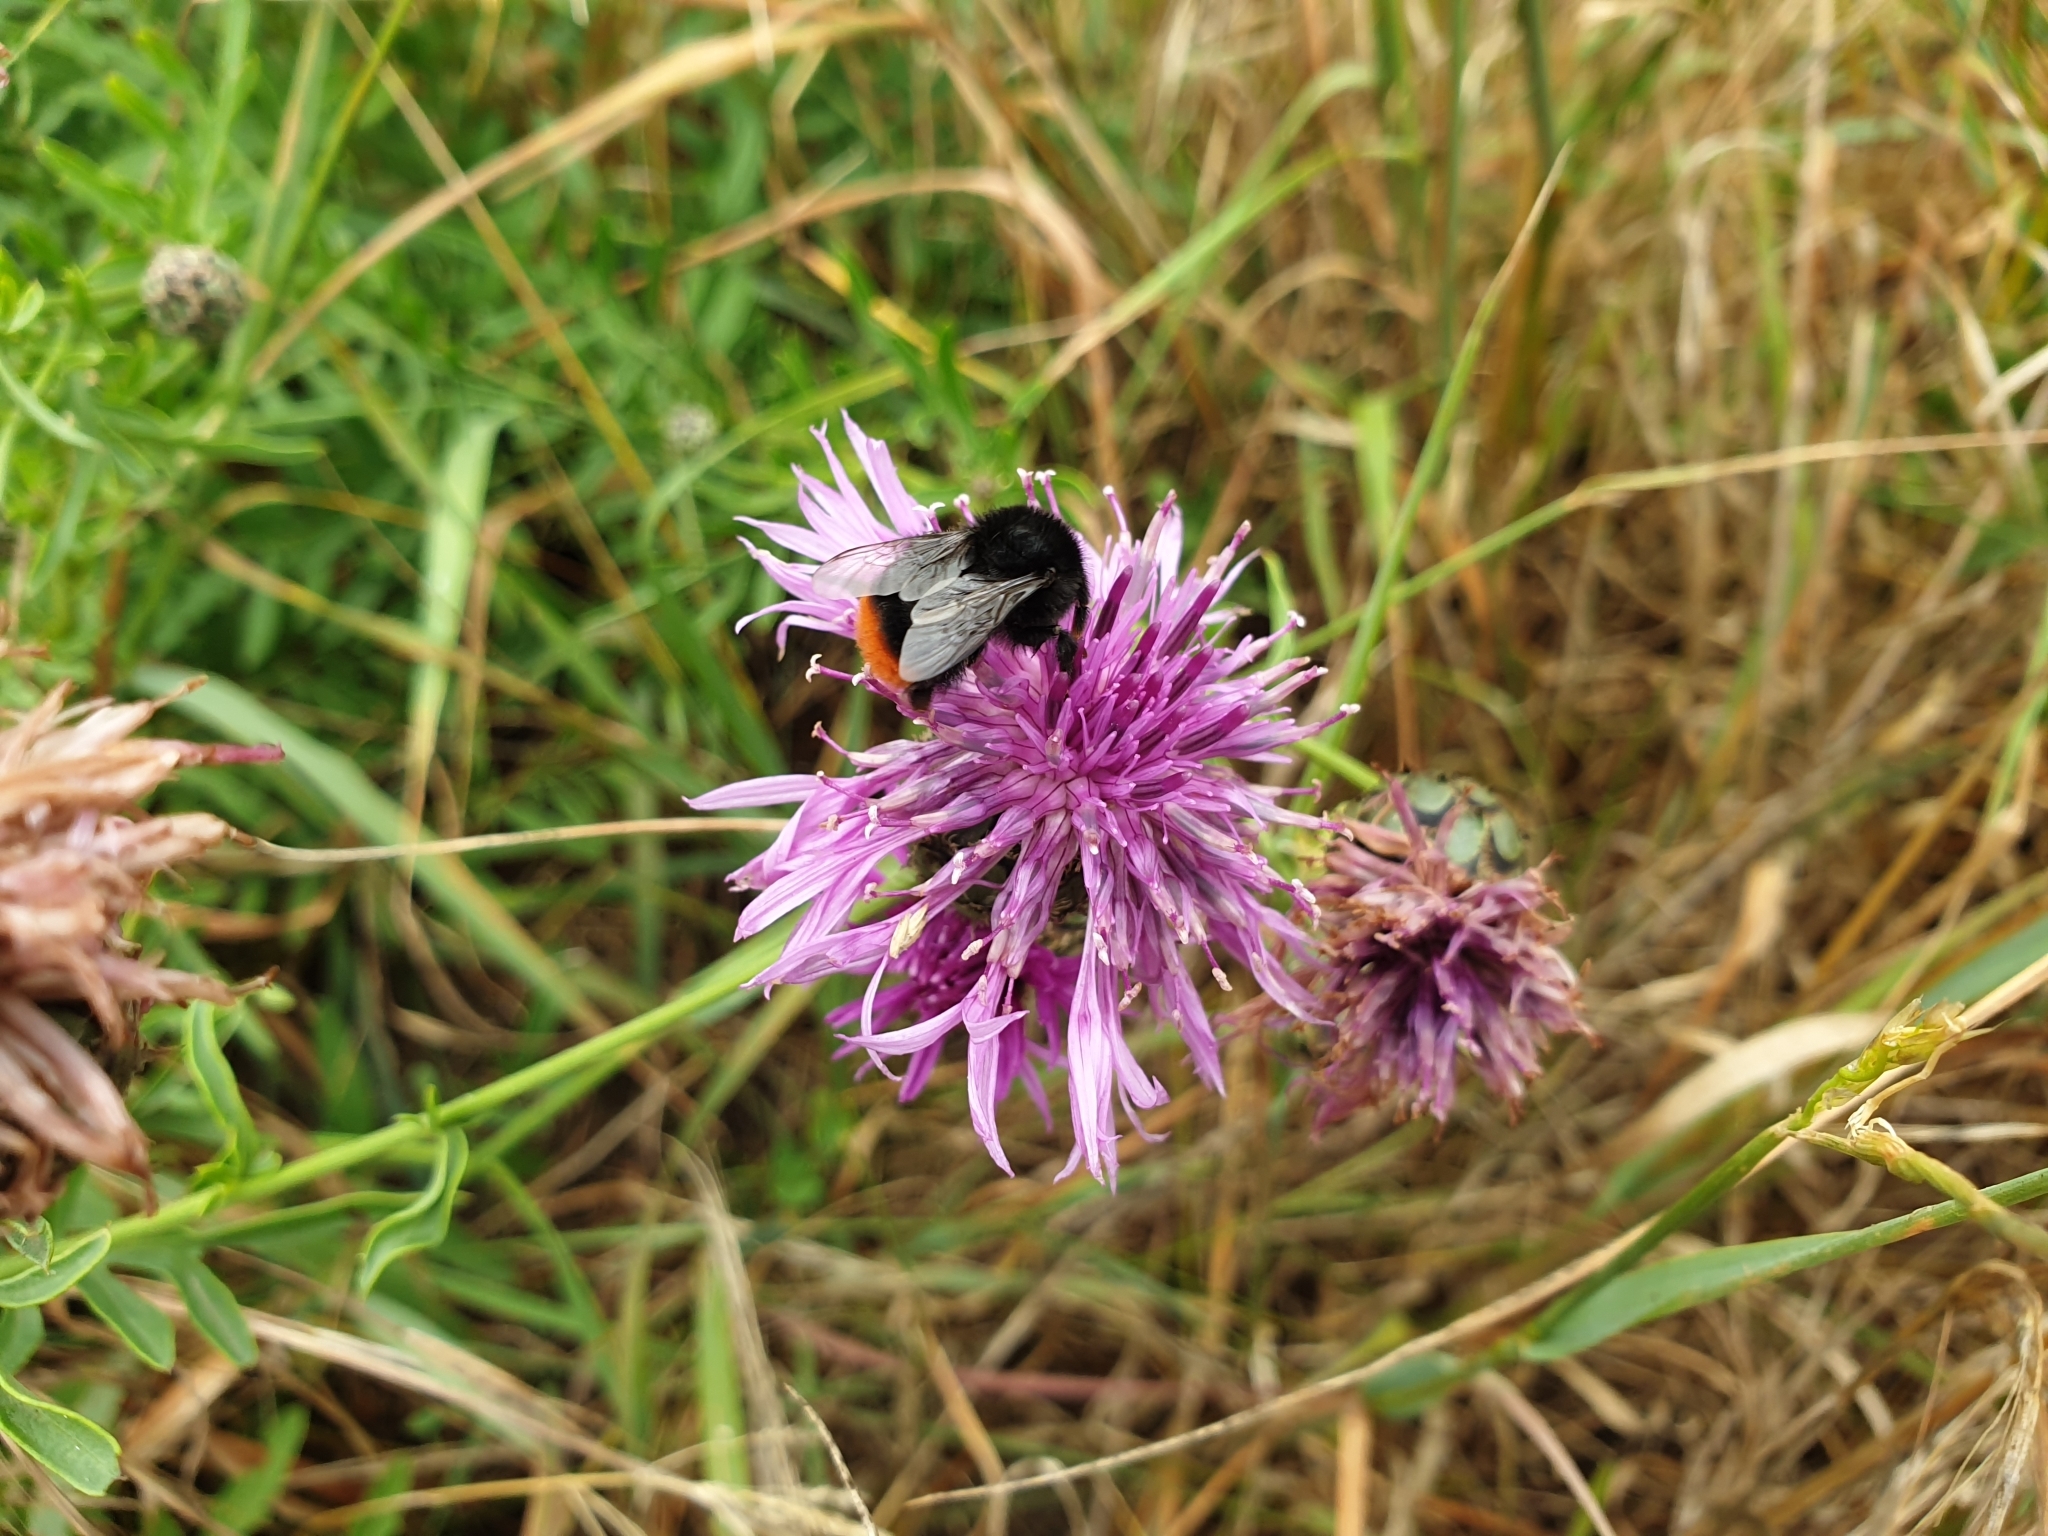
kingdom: Animalia
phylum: Arthropoda
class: Insecta
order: Hymenoptera
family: Apidae
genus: Bombus
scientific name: Bombus lapidarius
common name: Large red-tailed humble-bee
